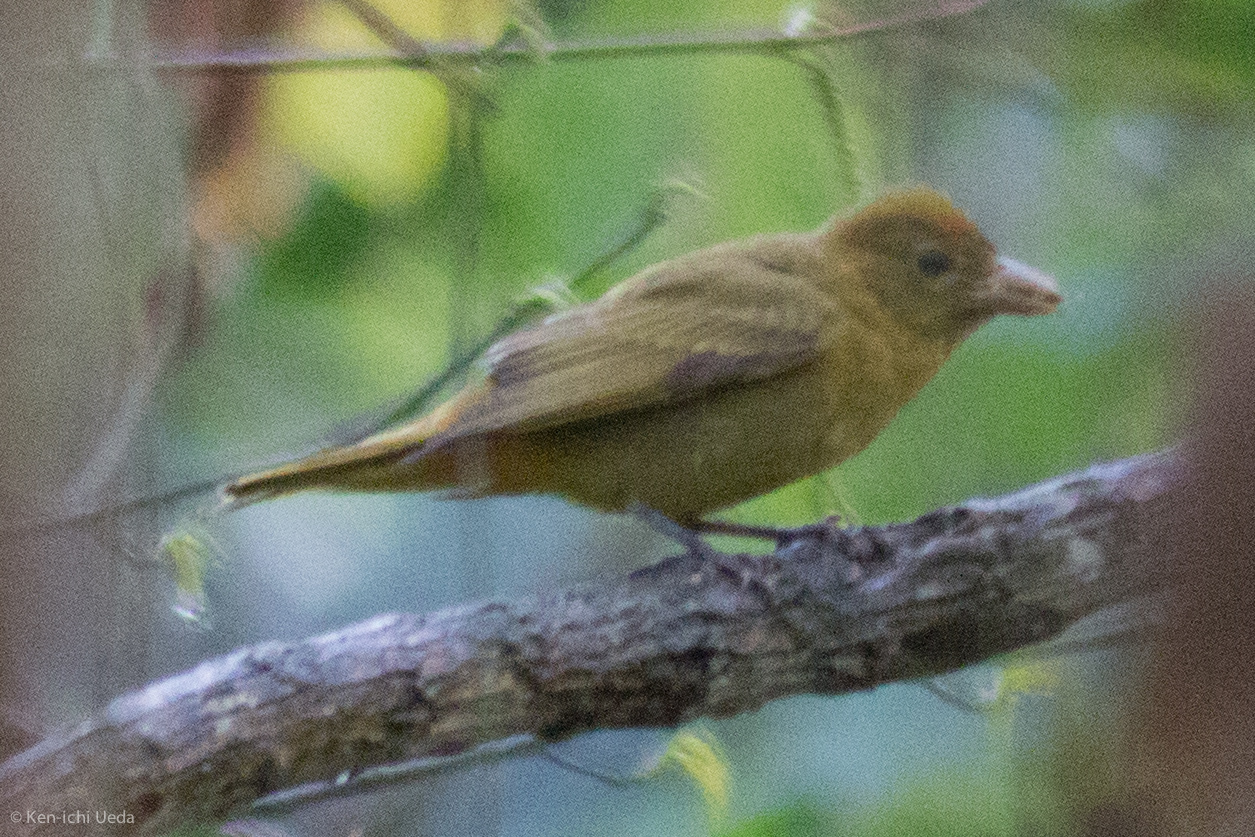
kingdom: Animalia
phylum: Chordata
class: Aves
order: Passeriformes
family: Cardinalidae
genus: Piranga
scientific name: Piranga rubra
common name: Summer tanager
